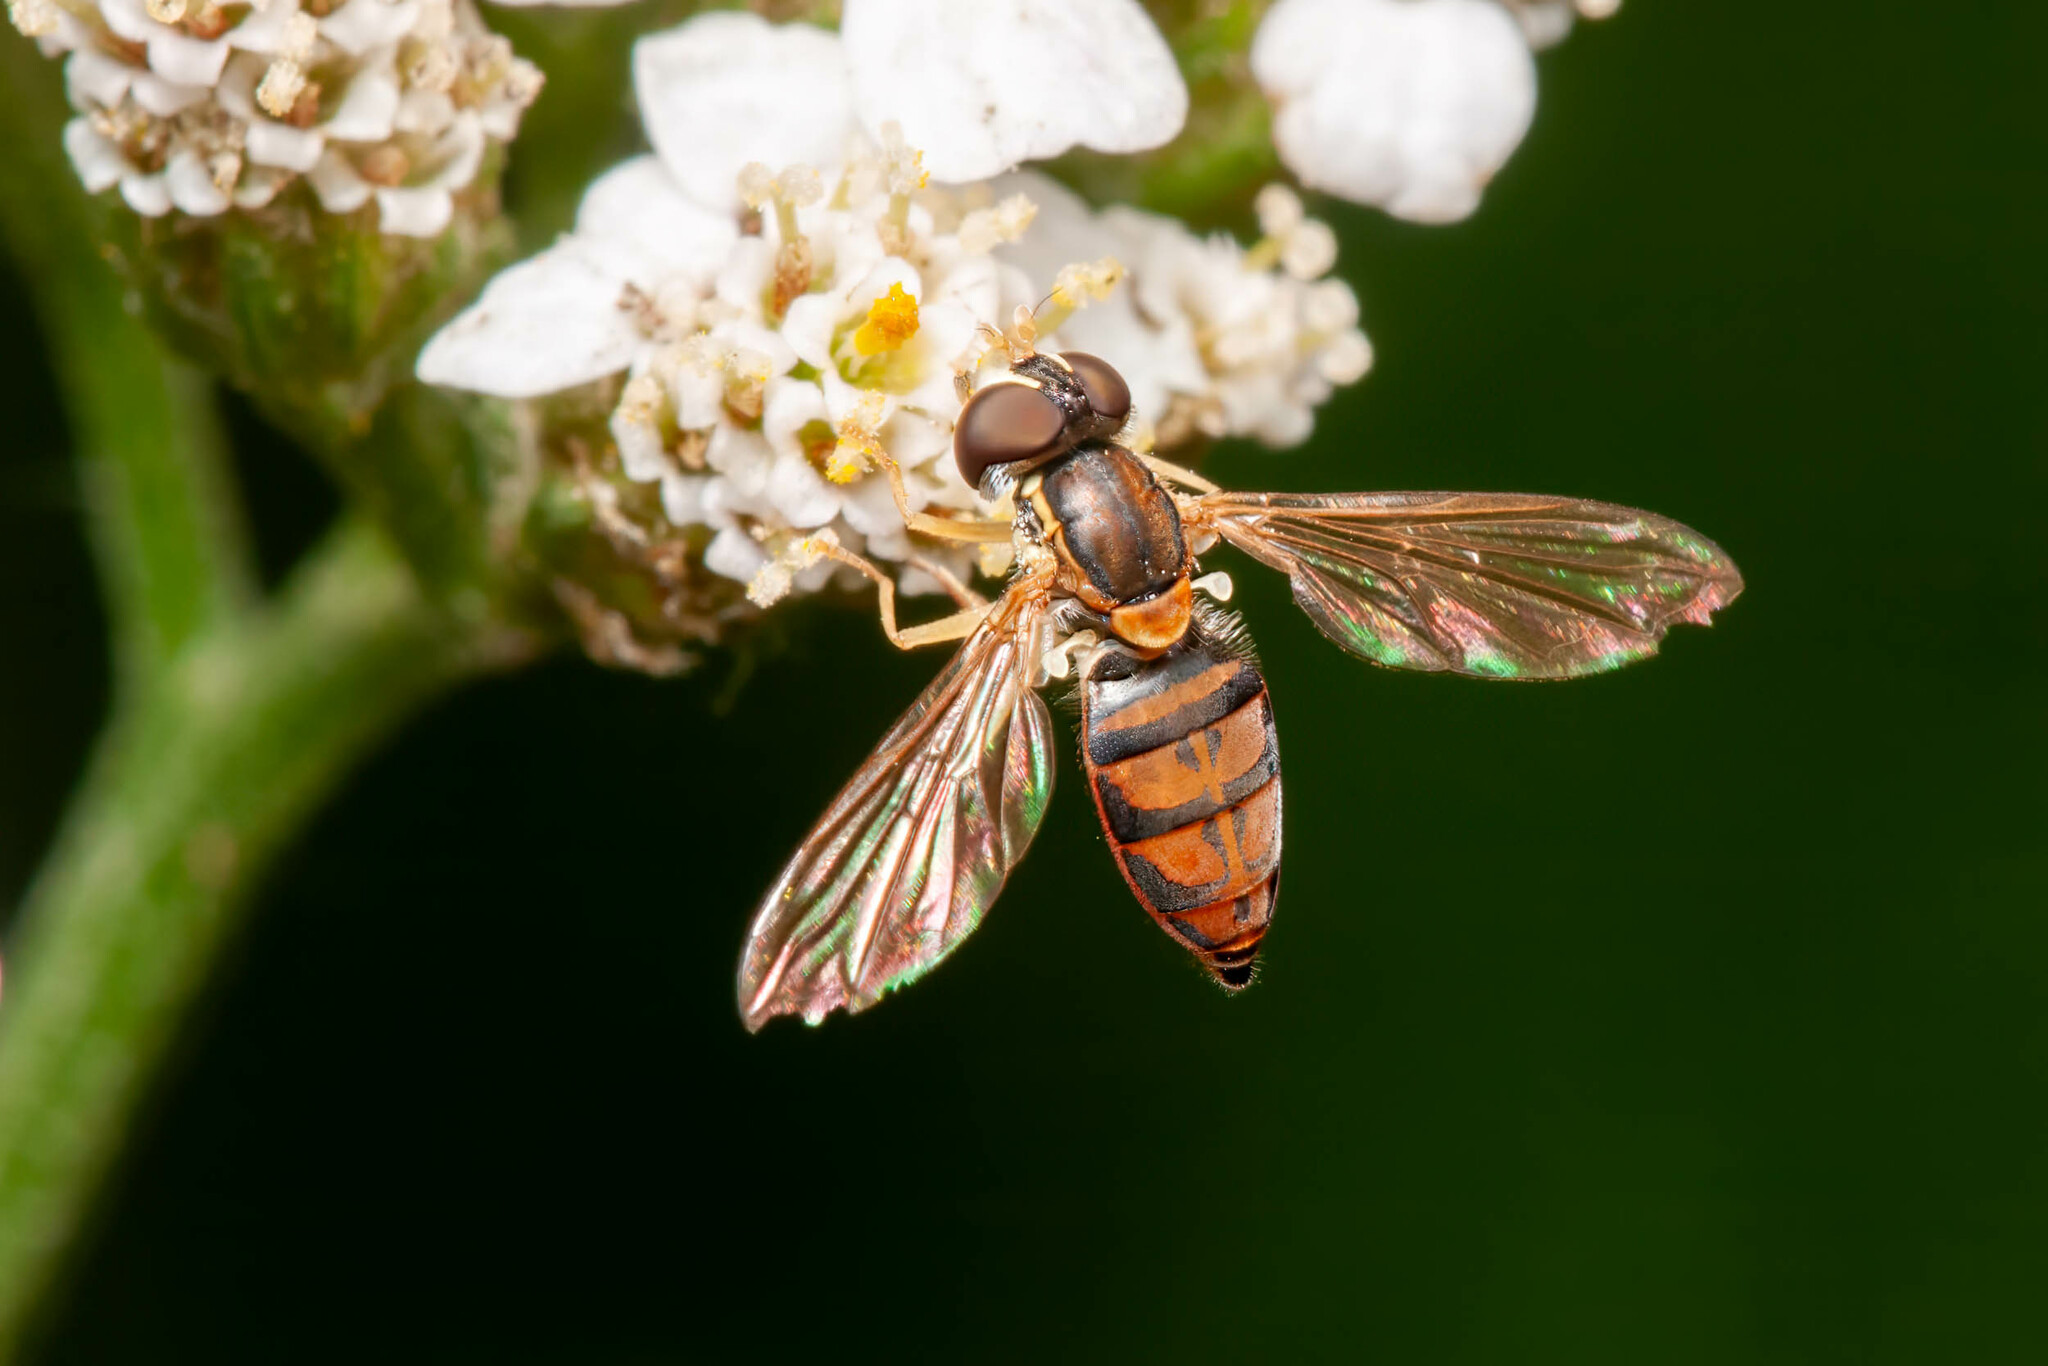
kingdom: Animalia
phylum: Arthropoda
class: Insecta
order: Diptera
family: Syrphidae
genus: Toxomerus
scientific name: Toxomerus marginatus
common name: Syrphid fly
